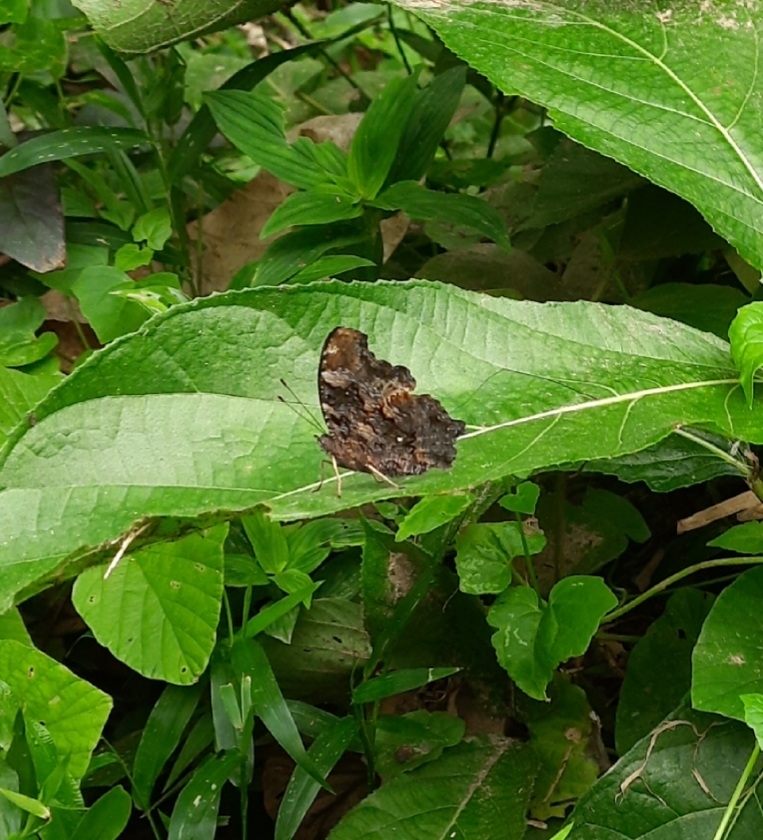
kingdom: Animalia
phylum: Arthropoda
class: Insecta
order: Lepidoptera
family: Nymphalidae
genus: Vanessa
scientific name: Vanessa Kaniska canace
